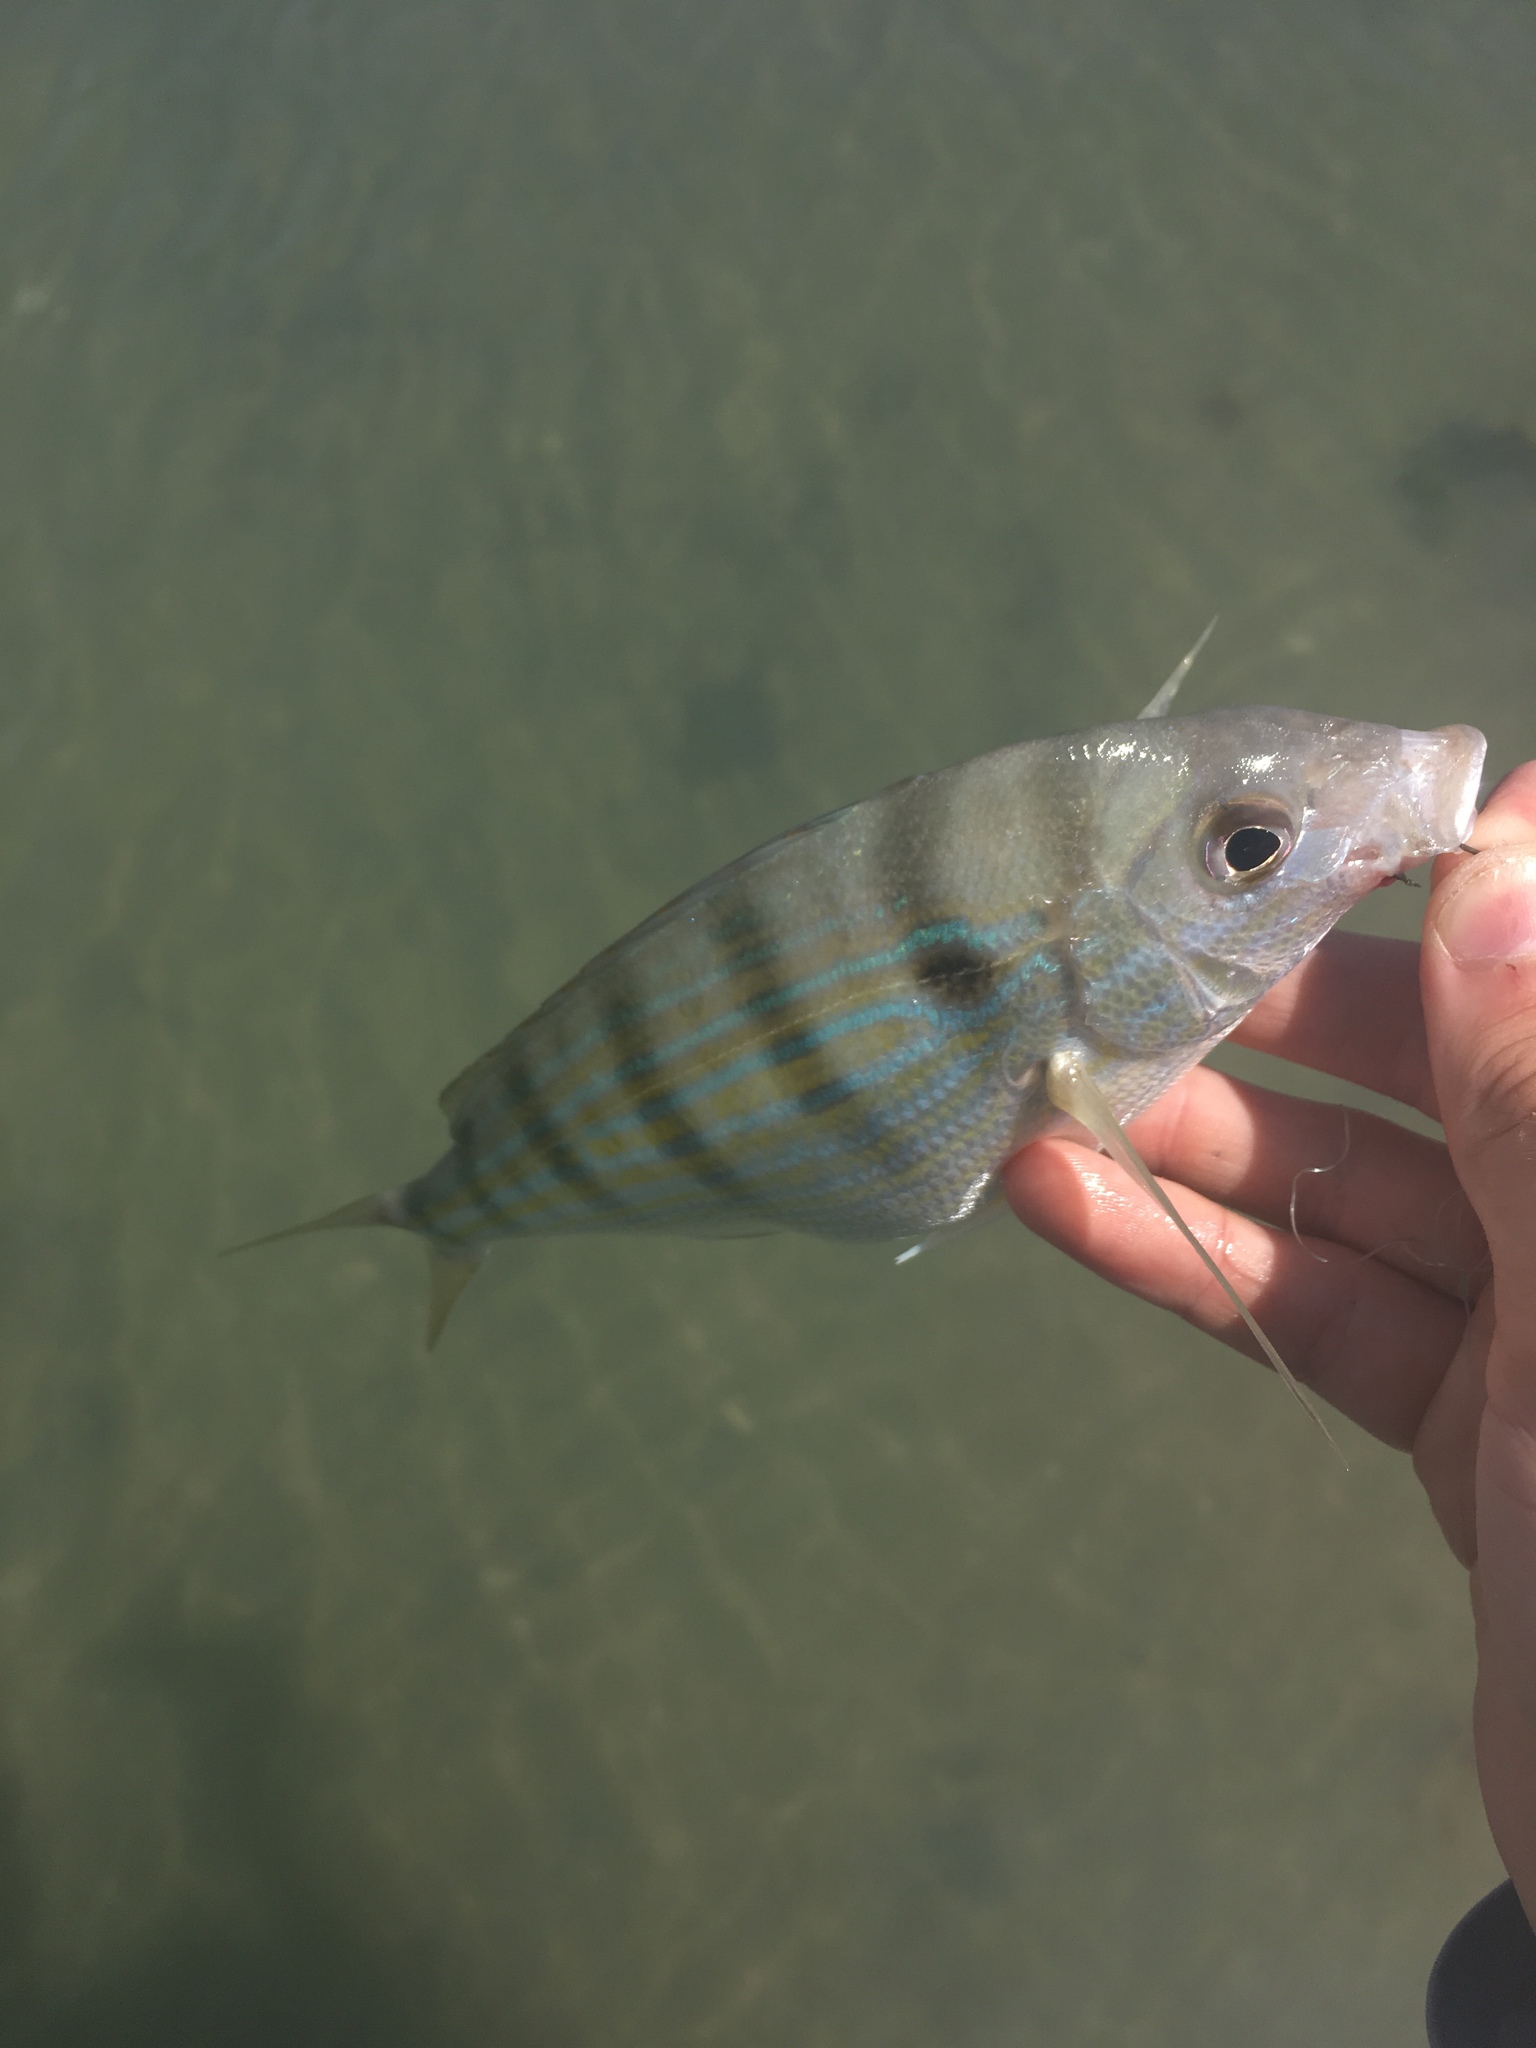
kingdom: Animalia
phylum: Chordata
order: Perciformes
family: Sparidae
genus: Lagodon
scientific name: Lagodon rhomboides
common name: Pinfish
